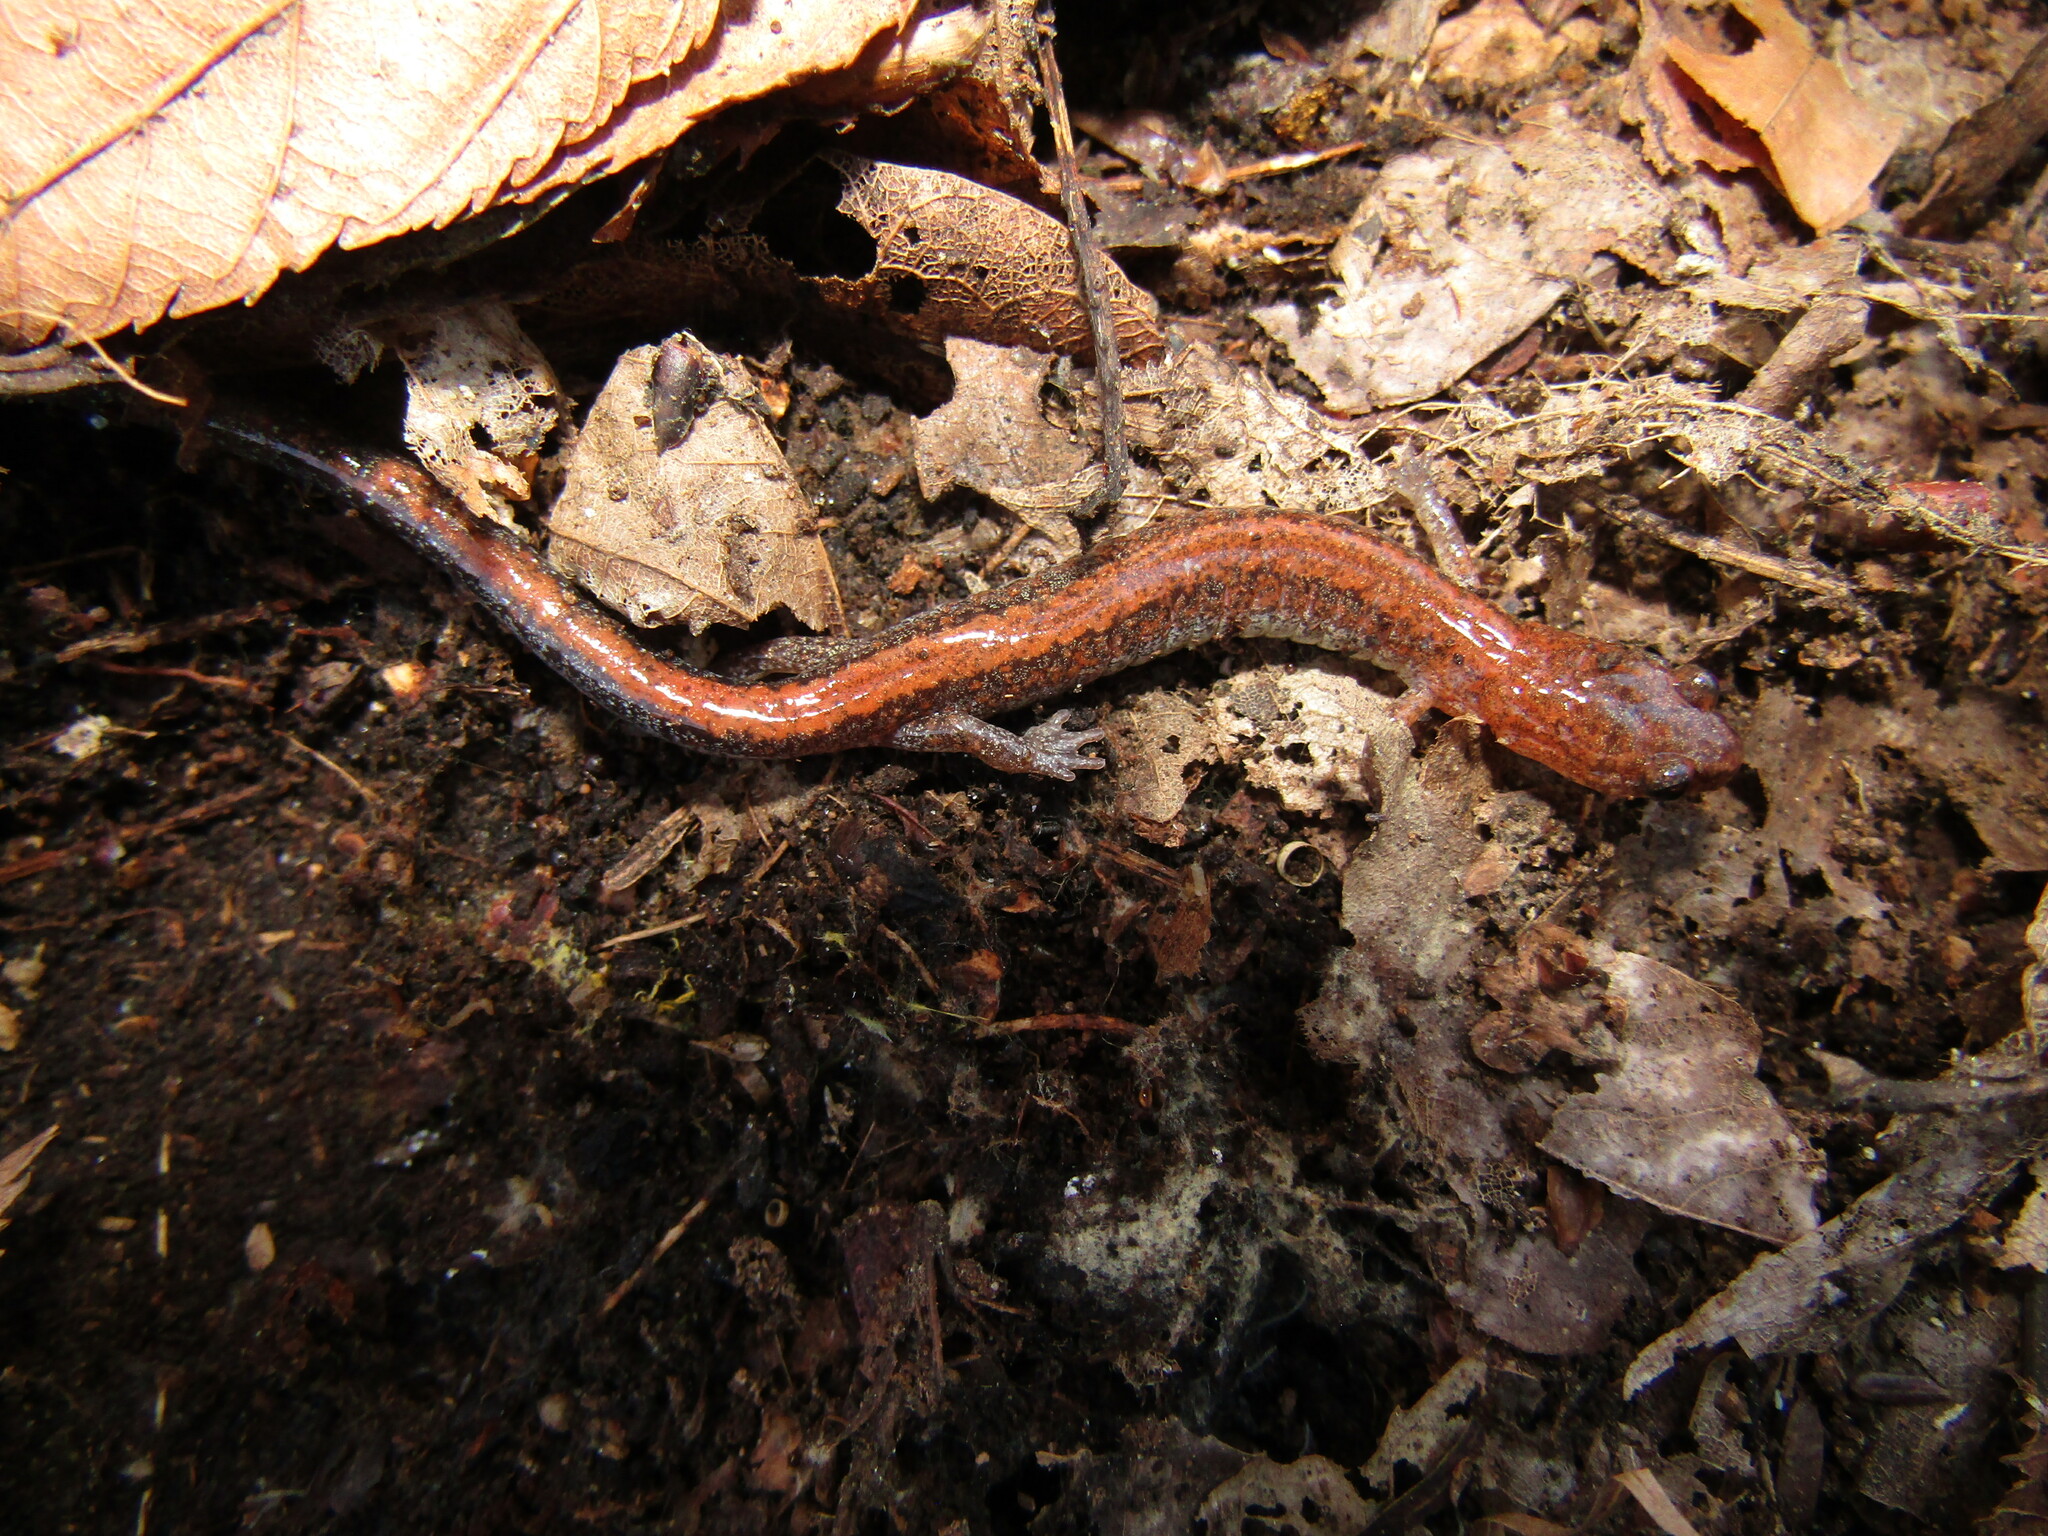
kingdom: Animalia
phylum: Chordata
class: Amphibia
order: Caudata
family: Plethodontidae
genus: Plethodon
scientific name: Plethodon cinereus
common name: Redback salamander
